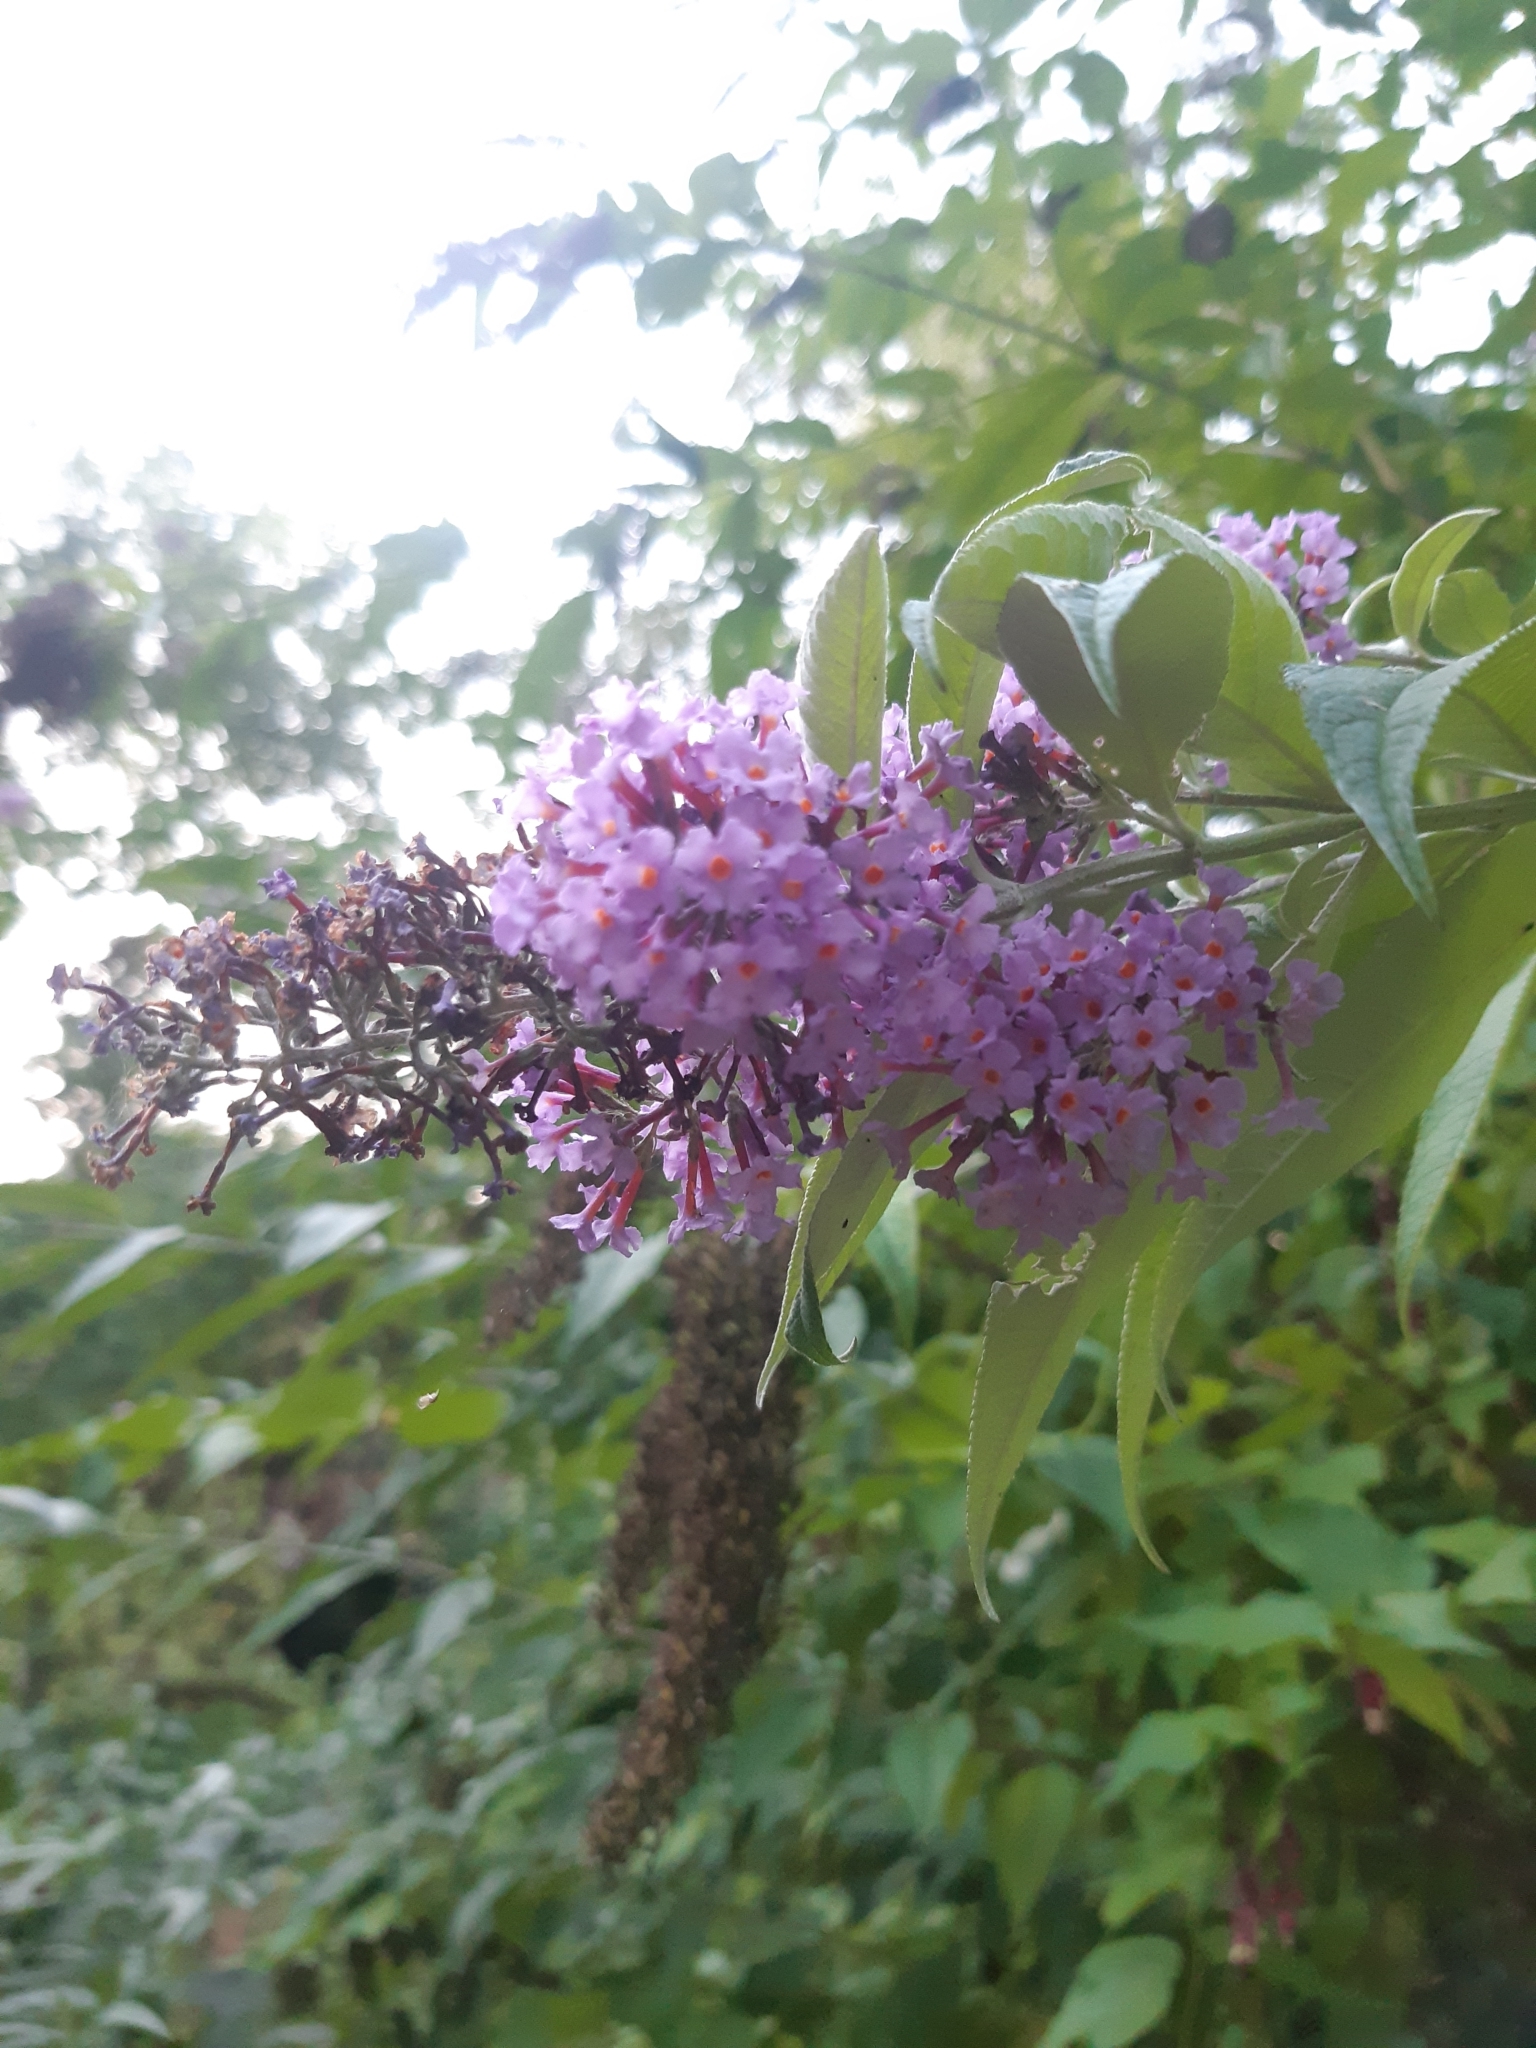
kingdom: Plantae
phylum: Tracheophyta
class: Magnoliopsida
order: Lamiales
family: Scrophulariaceae
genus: Buddleja
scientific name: Buddleja davidii
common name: Butterfly-bush
